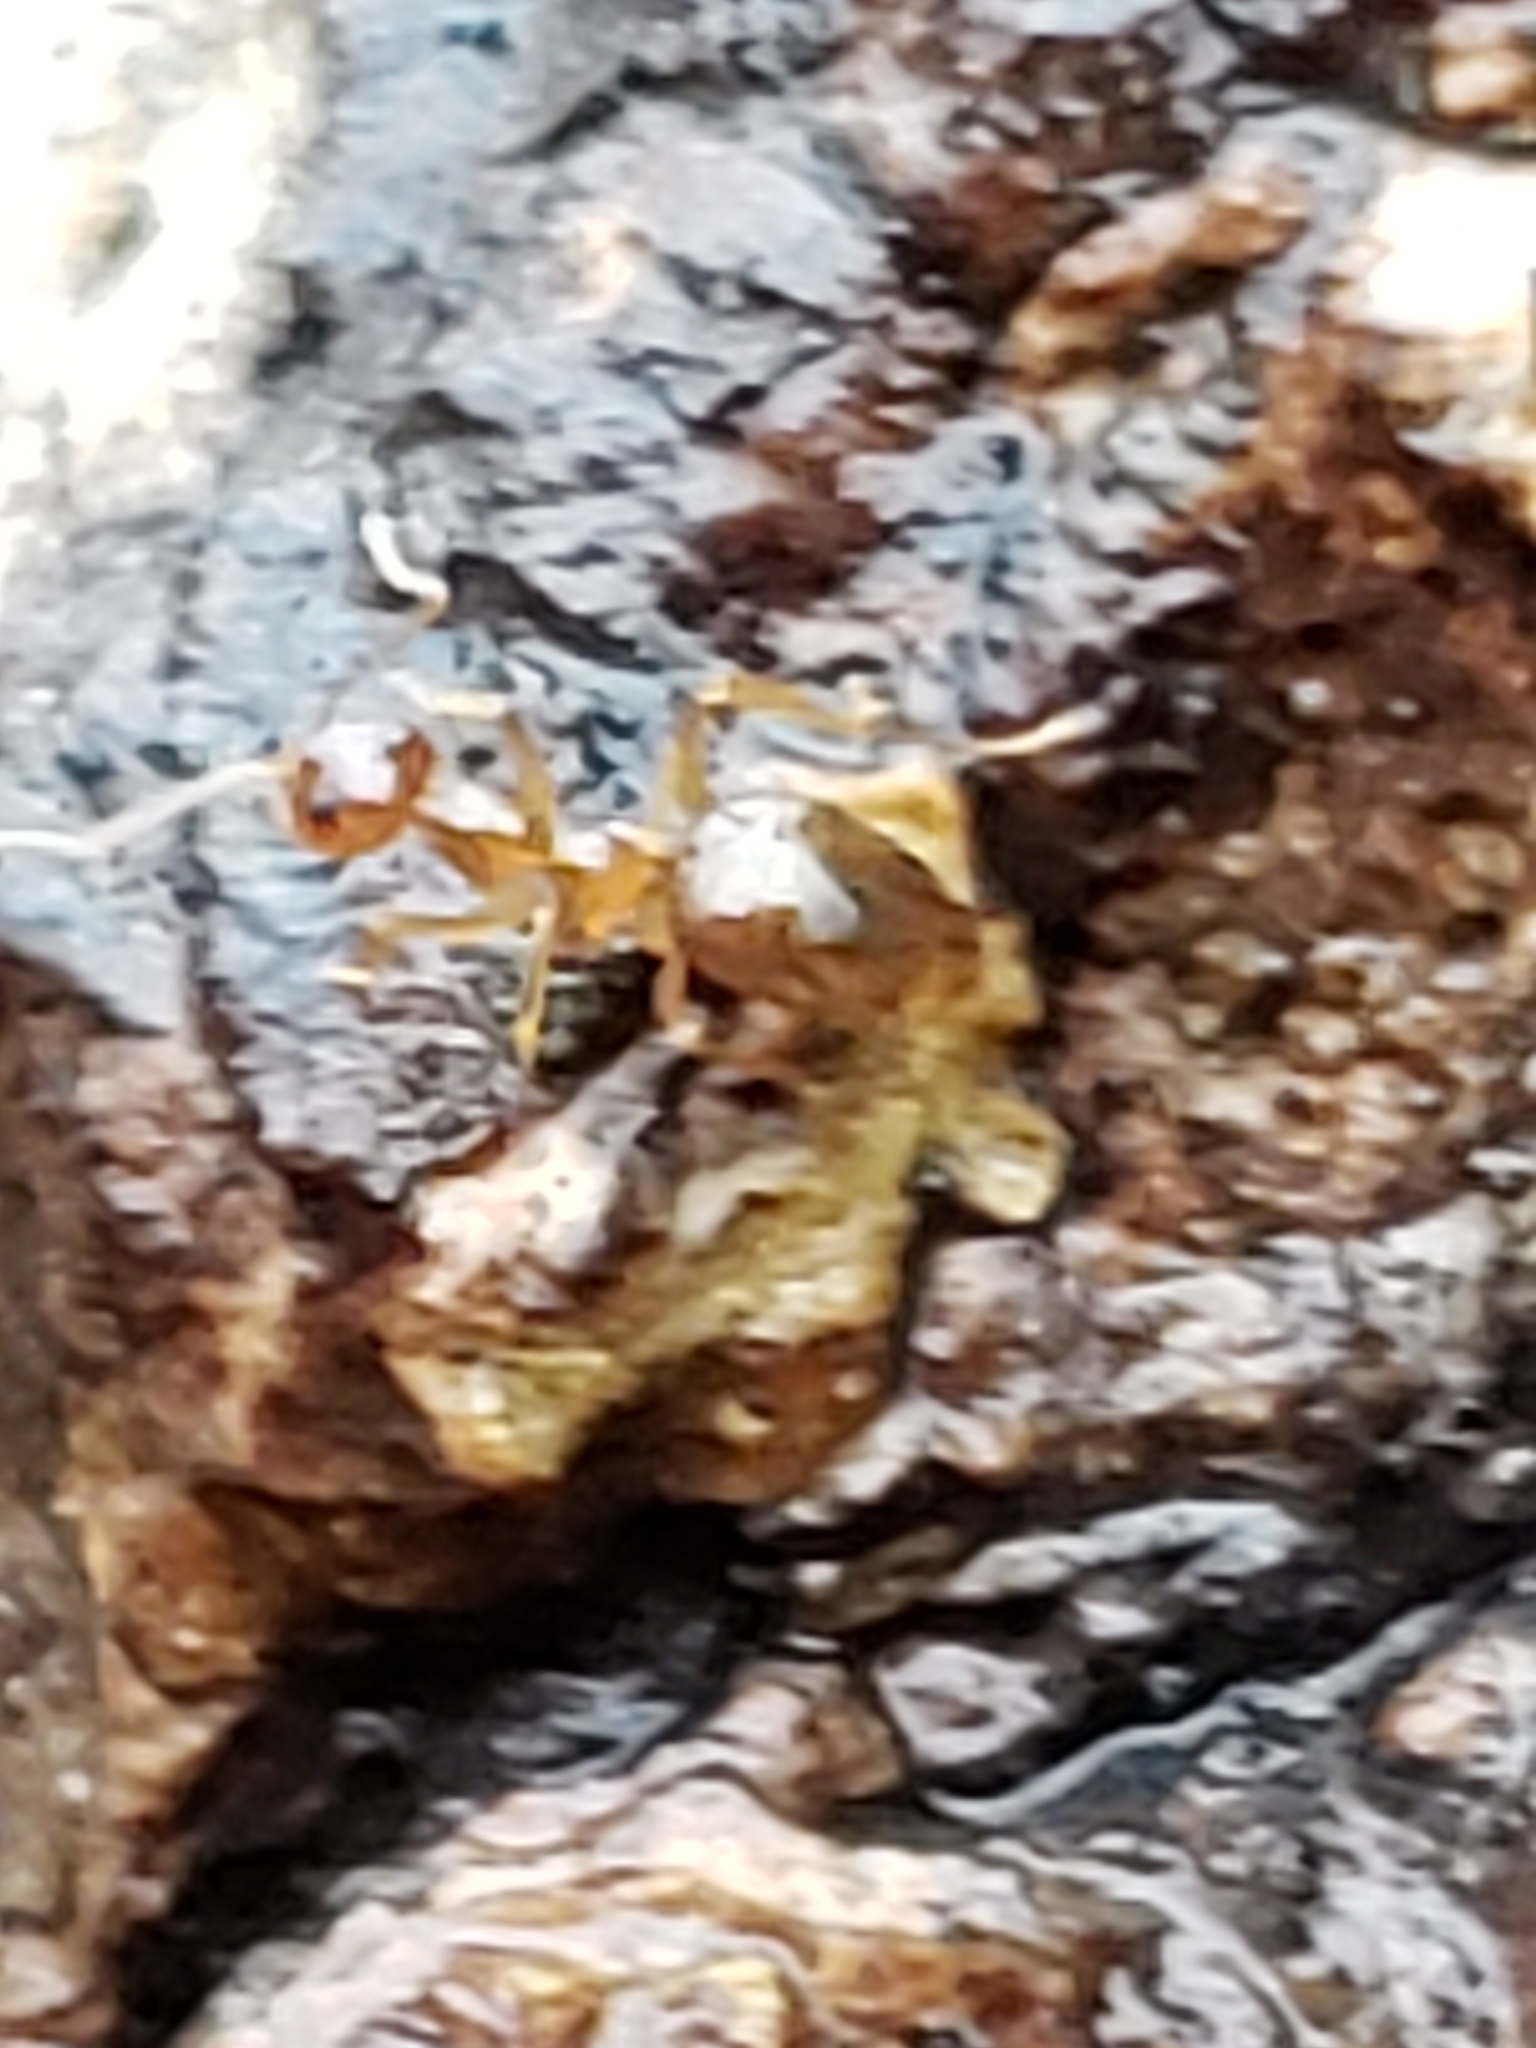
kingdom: Animalia
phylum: Arthropoda
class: Insecta
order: Hymenoptera
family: Formicidae
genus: Prenolepis
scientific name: Prenolepis imparis
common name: Small honey ant
